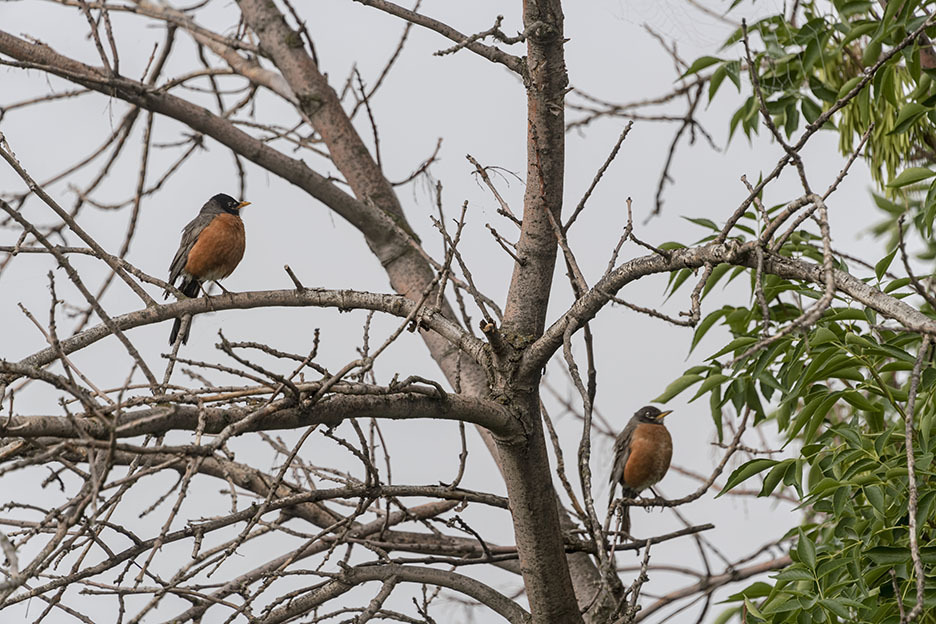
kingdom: Animalia
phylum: Chordata
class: Aves
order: Passeriformes
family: Turdidae
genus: Turdus
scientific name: Turdus migratorius
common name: American robin
